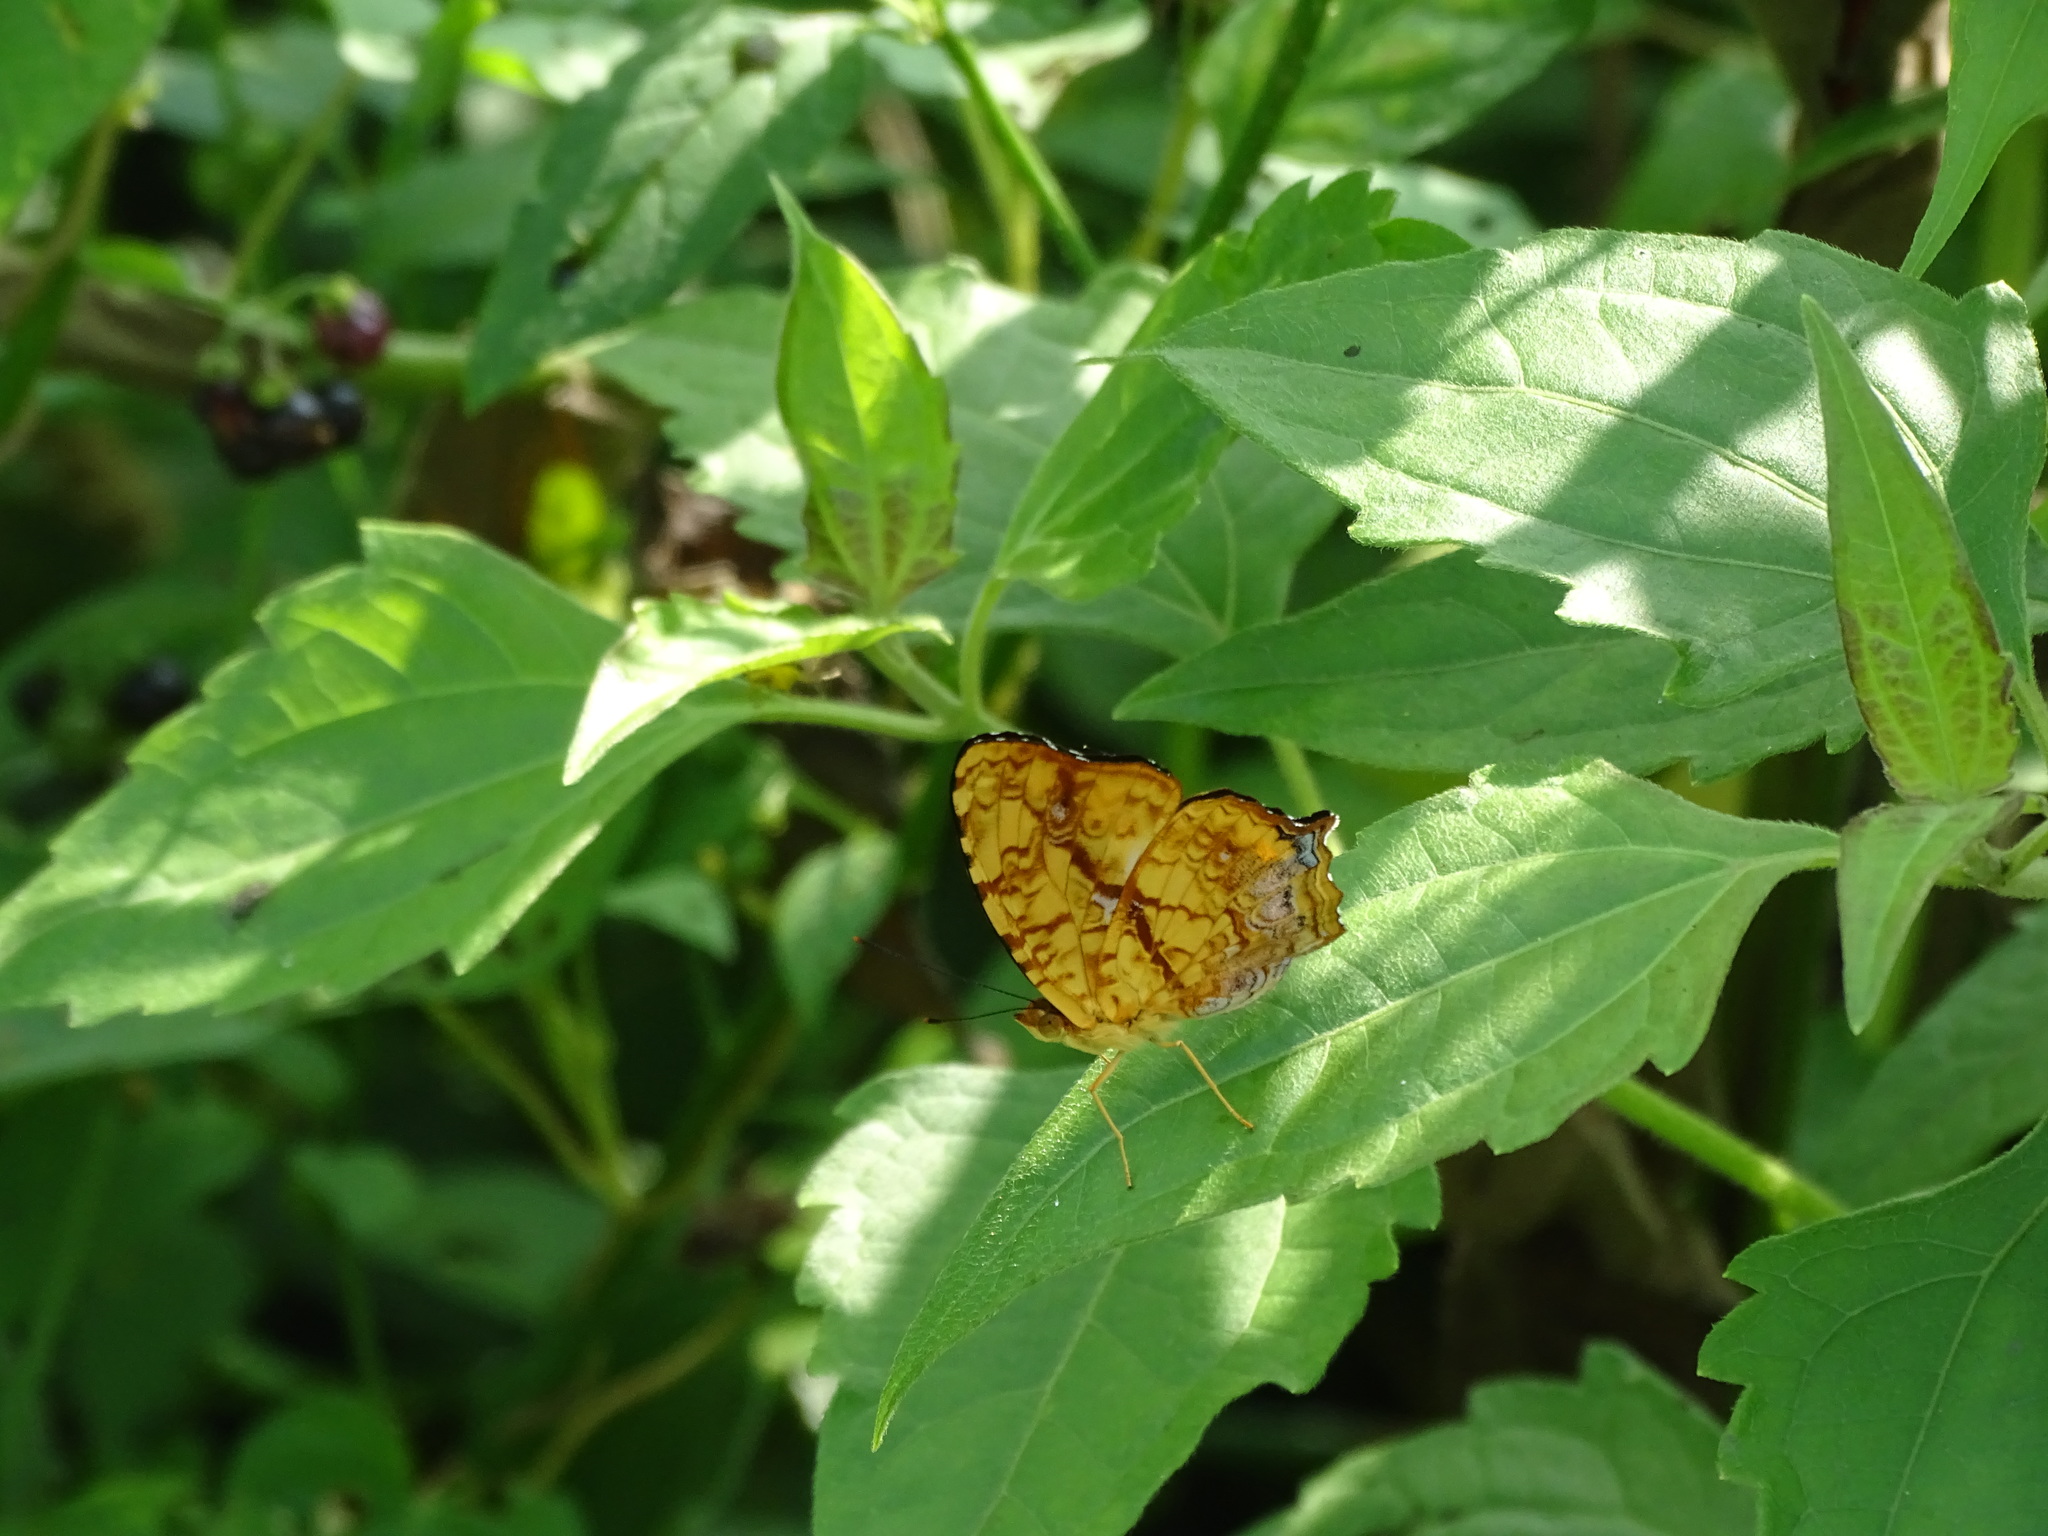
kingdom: Animalia
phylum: Arthropoda
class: Insecta
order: Lepidoptera
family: Nymphalidae
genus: Symbrenthia
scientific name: Symbrenthia hypselis
